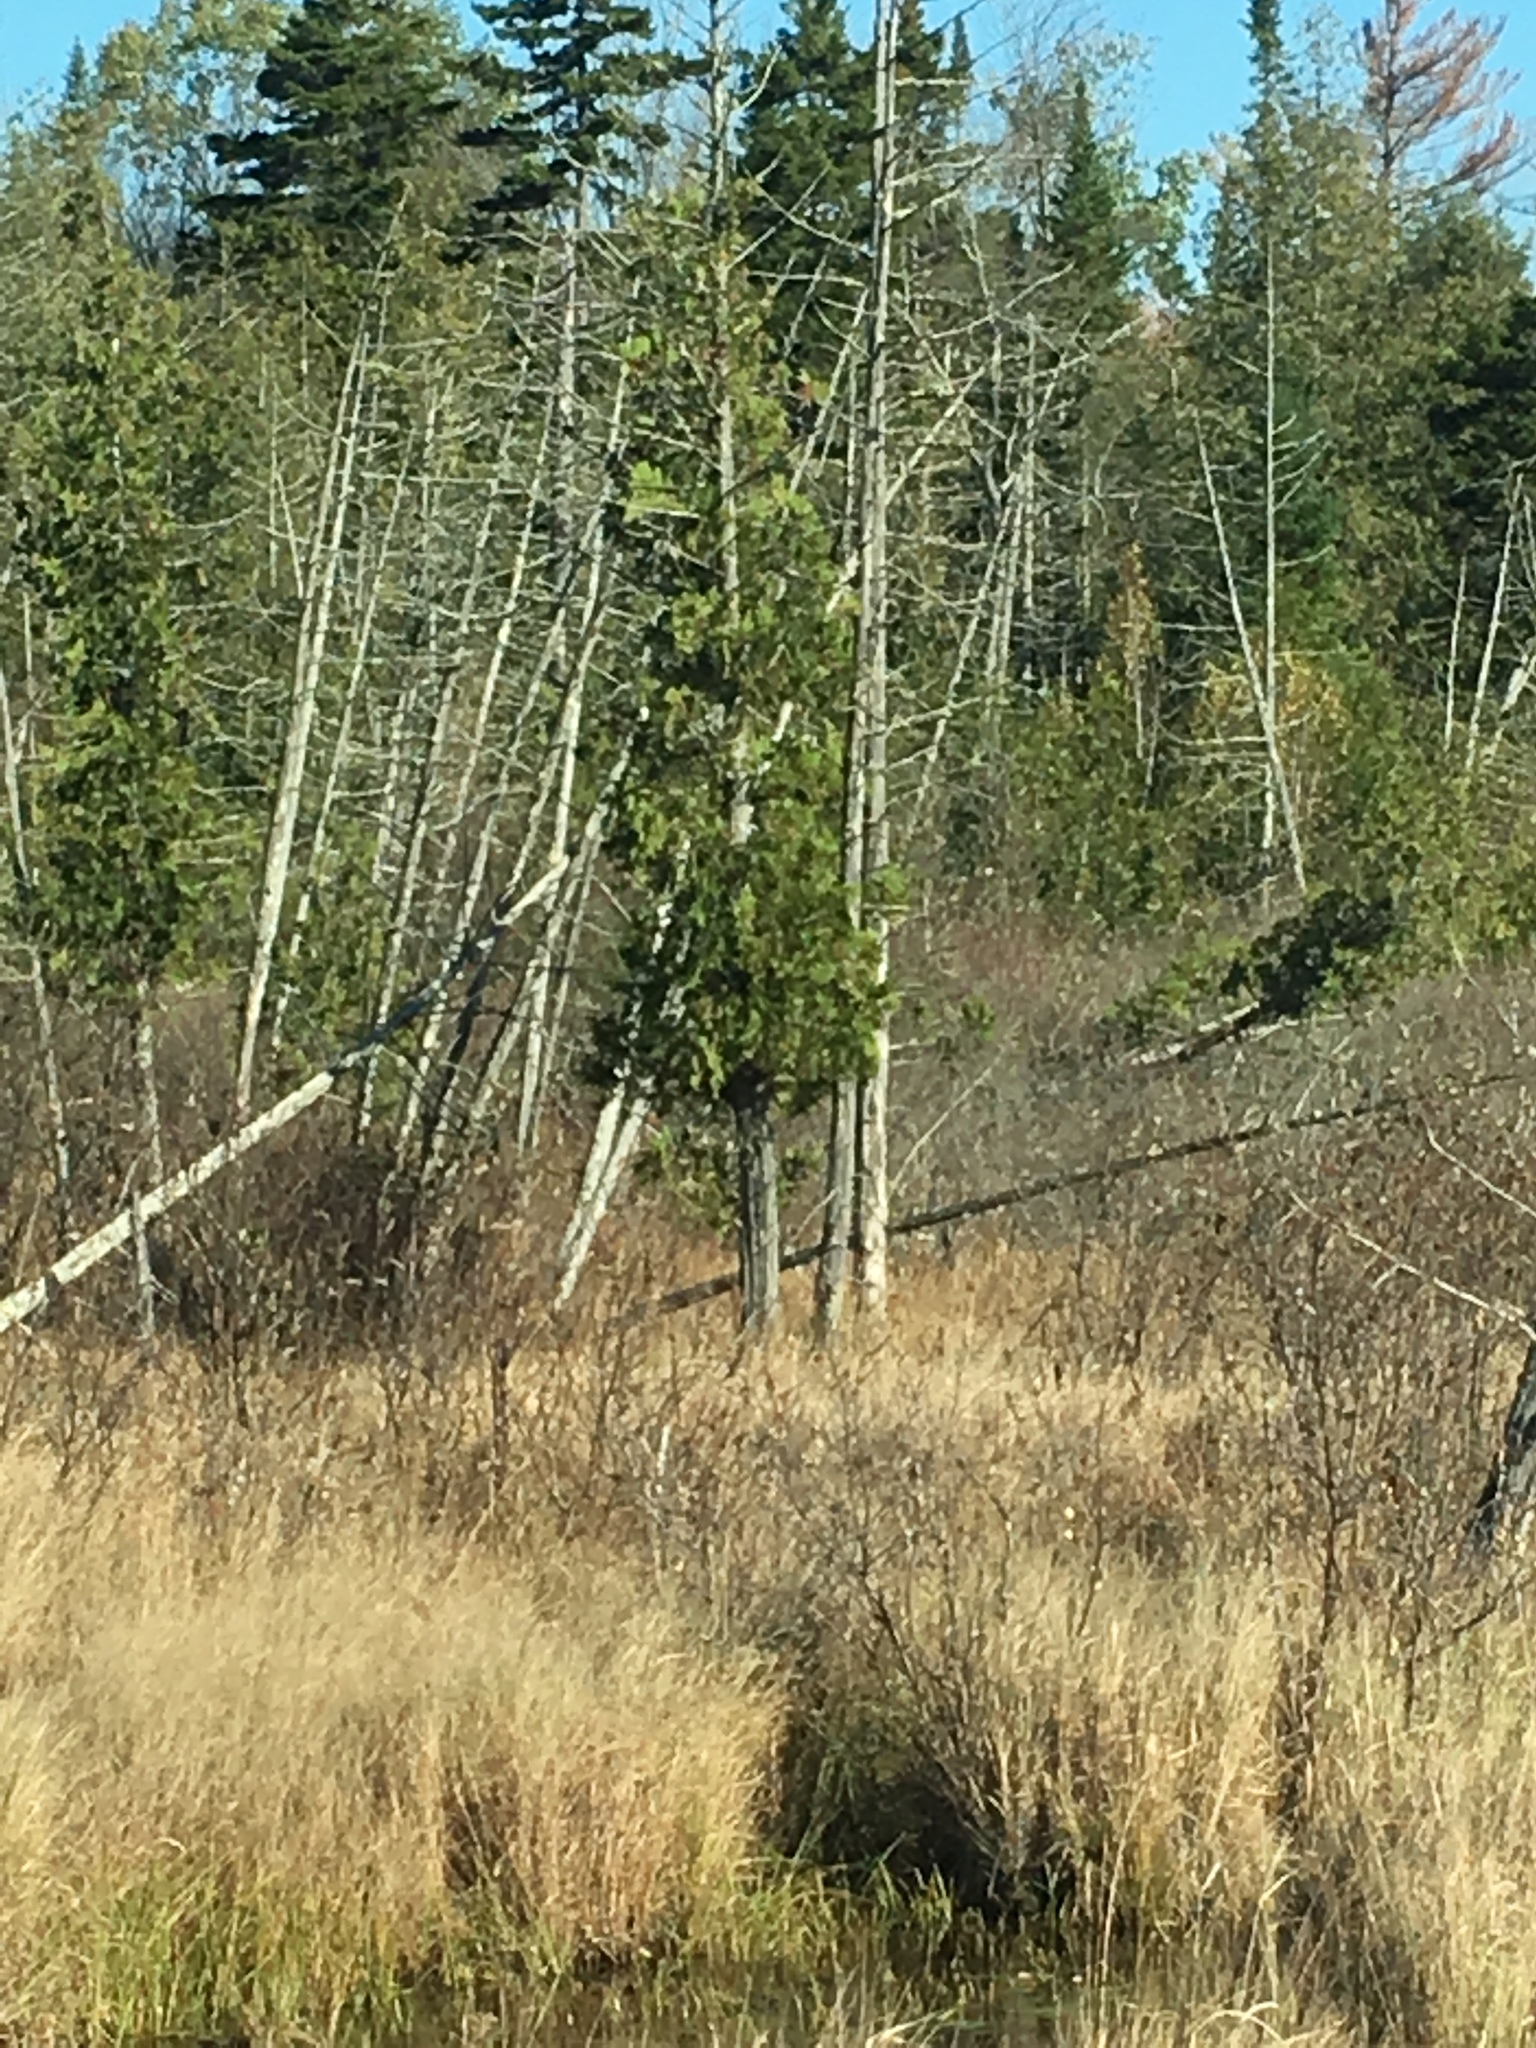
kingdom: Plantae
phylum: Tracheophyta
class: Pinopsida
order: Pinales
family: Cupressaceae
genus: Thuja
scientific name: Thuja occidentalis
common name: Northern white-cedar
